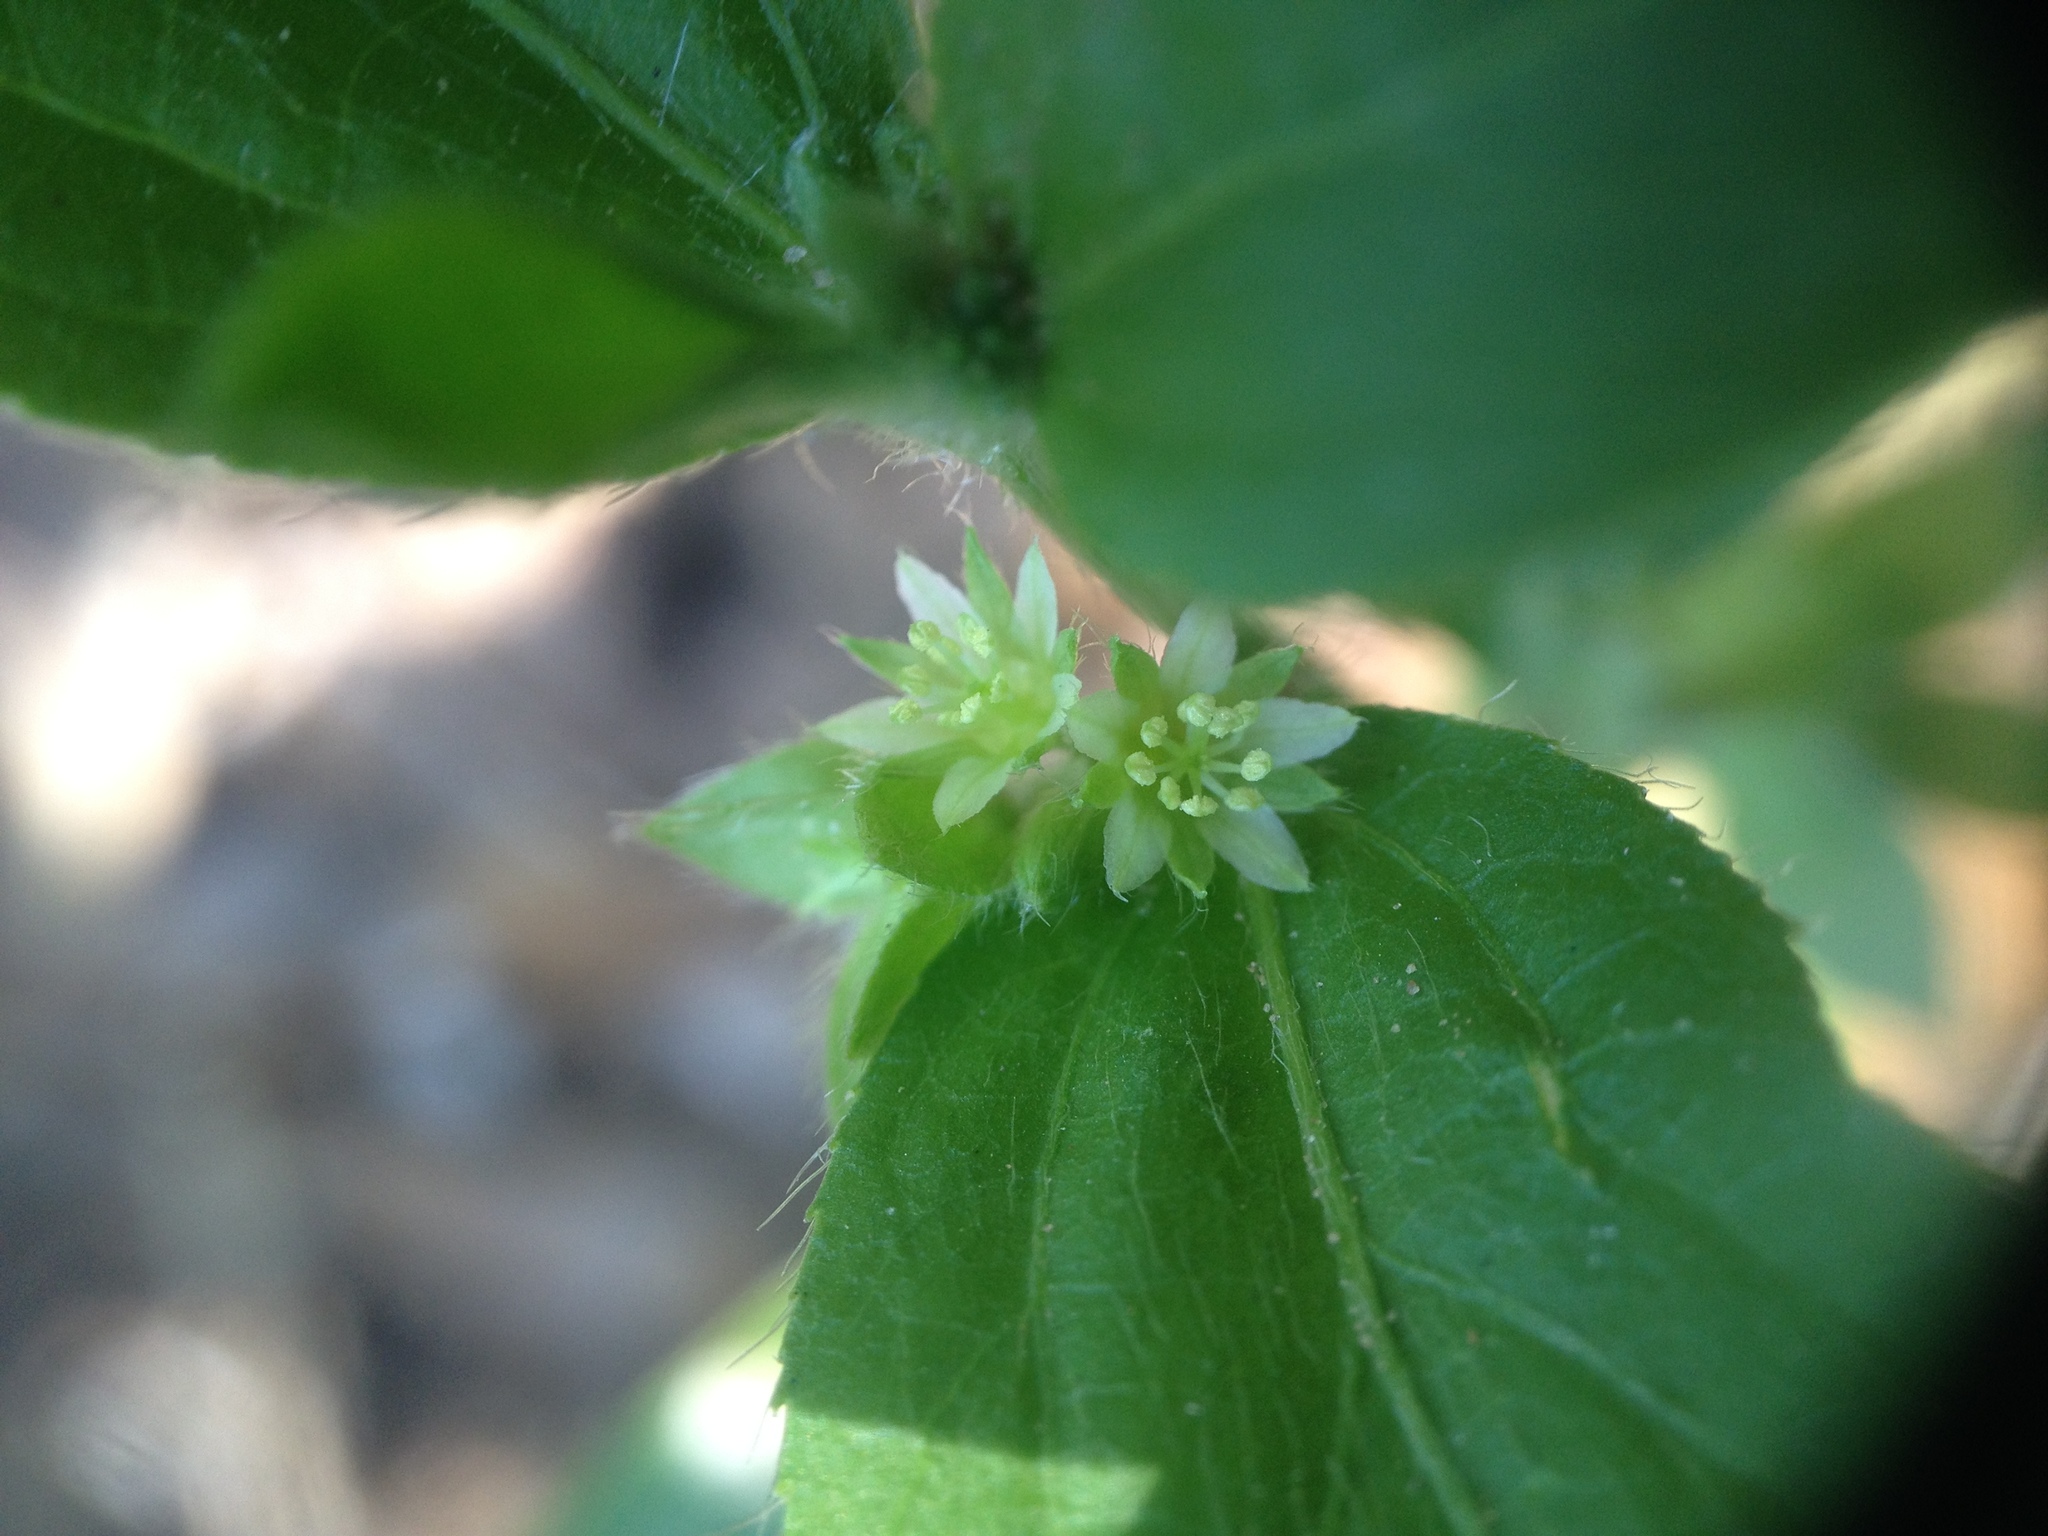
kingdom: Plantae
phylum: Tracheophyta
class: Magnoliopsida
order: Malpighiales
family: Euphorbiaceae
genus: Ditaxis
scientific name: Ditaxis breviramea
